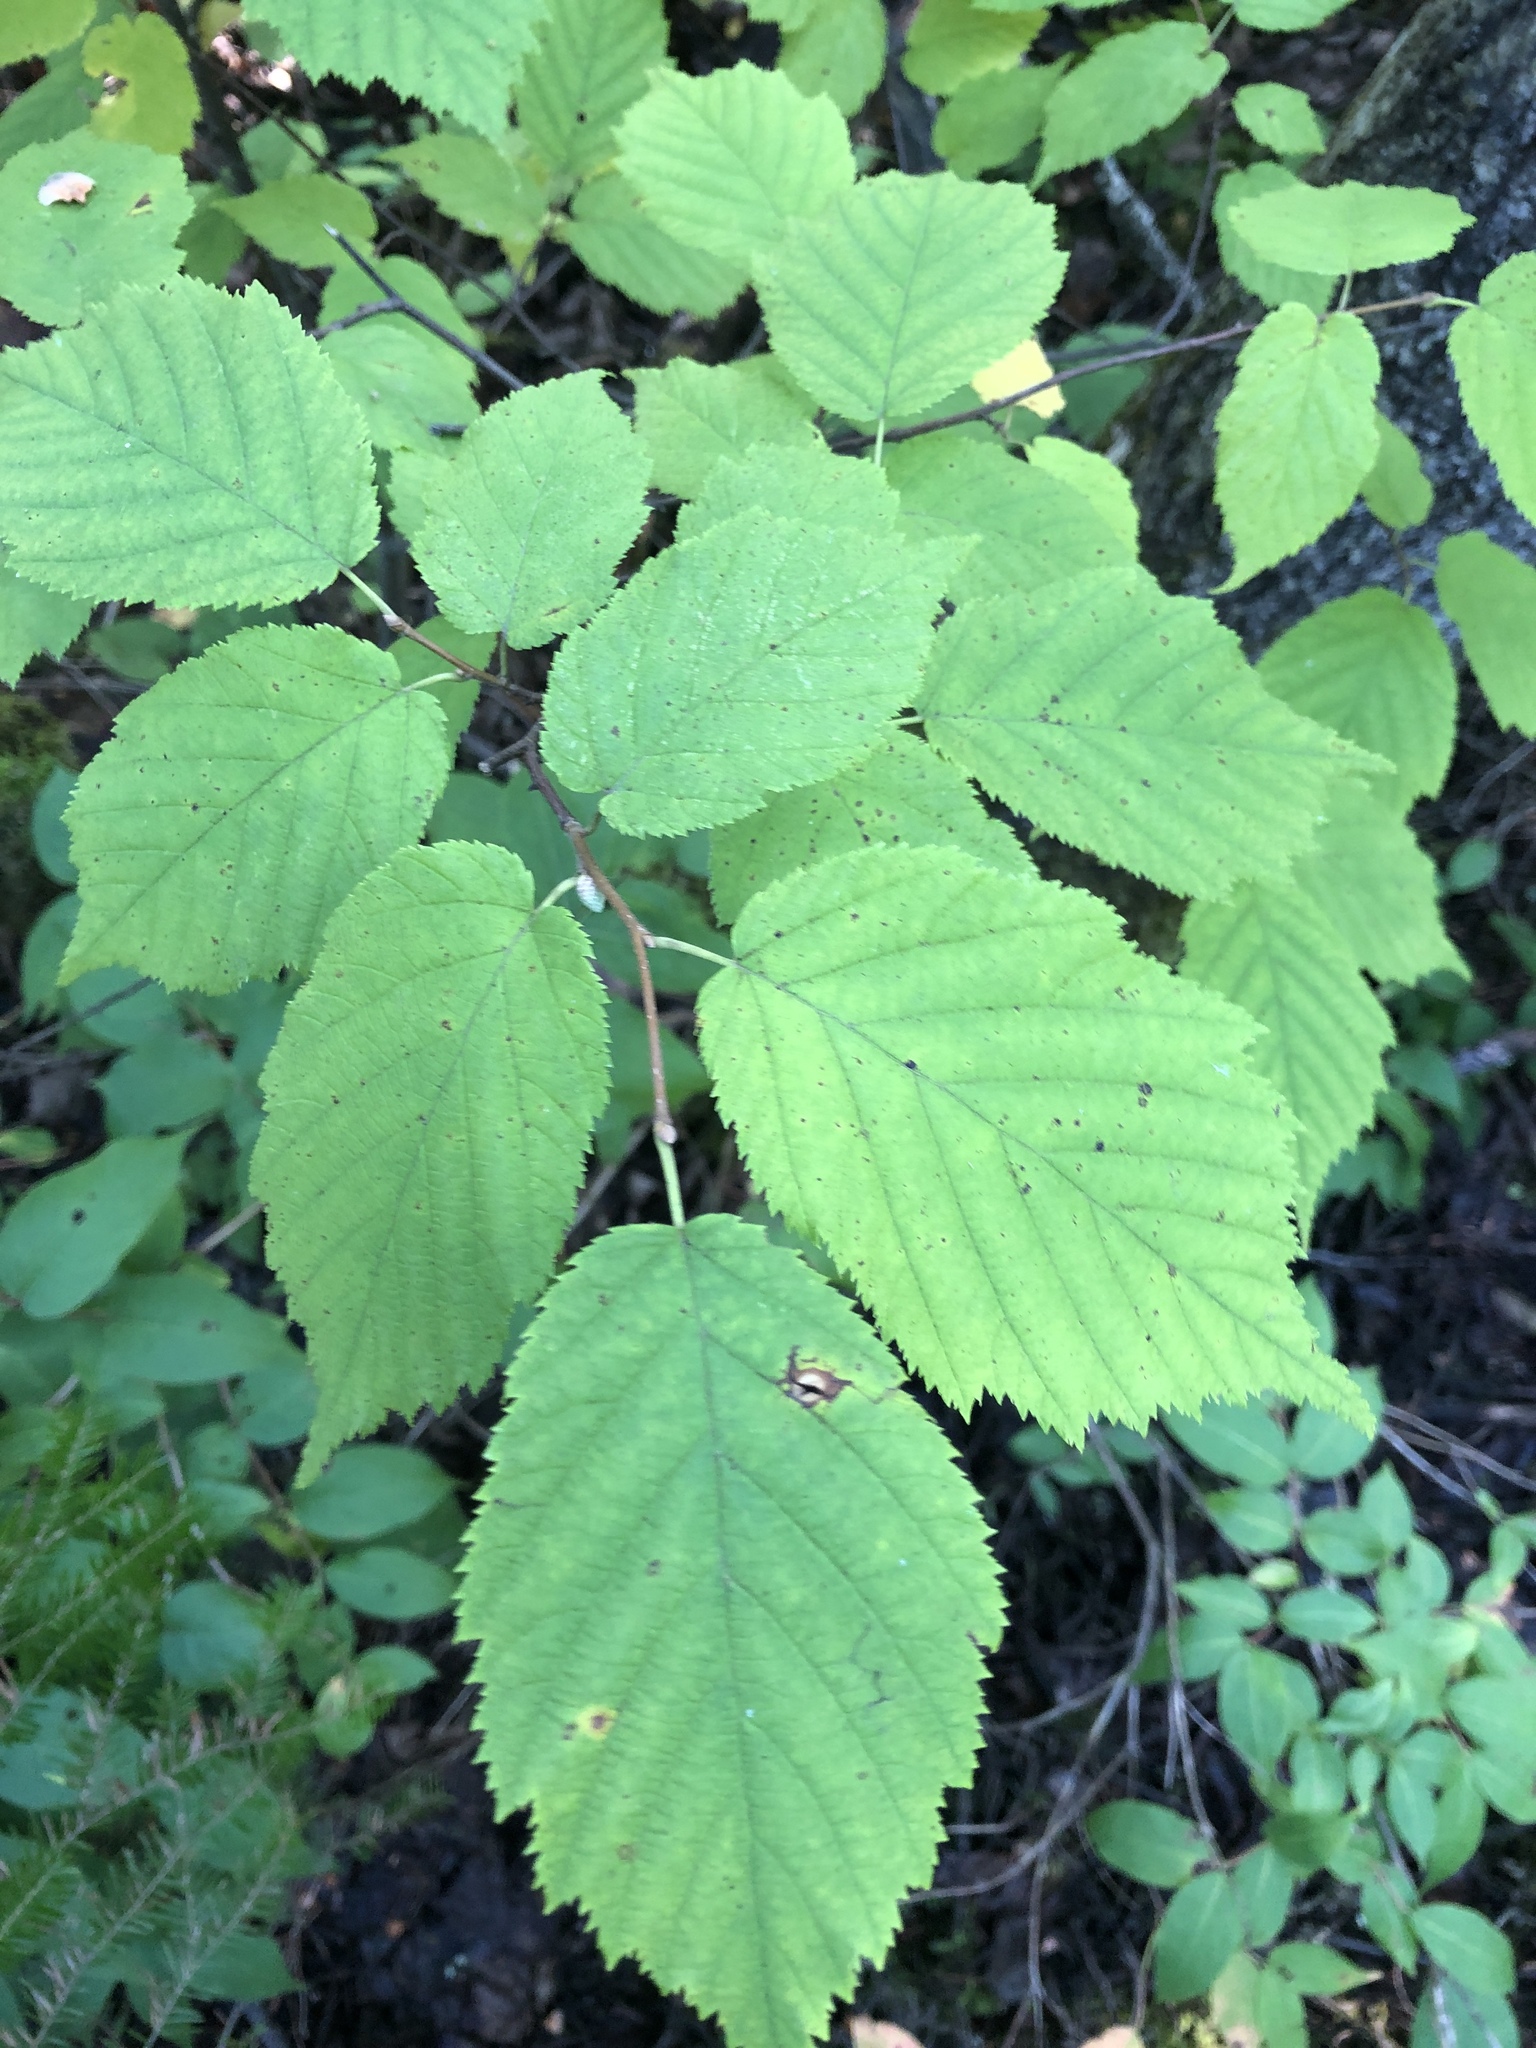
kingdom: Plantae
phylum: Tracheophyta
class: Magnoliopsida
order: Fagales
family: Betulaceae
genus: Corylus
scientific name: Corylus cornuta
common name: Beaked hazel
